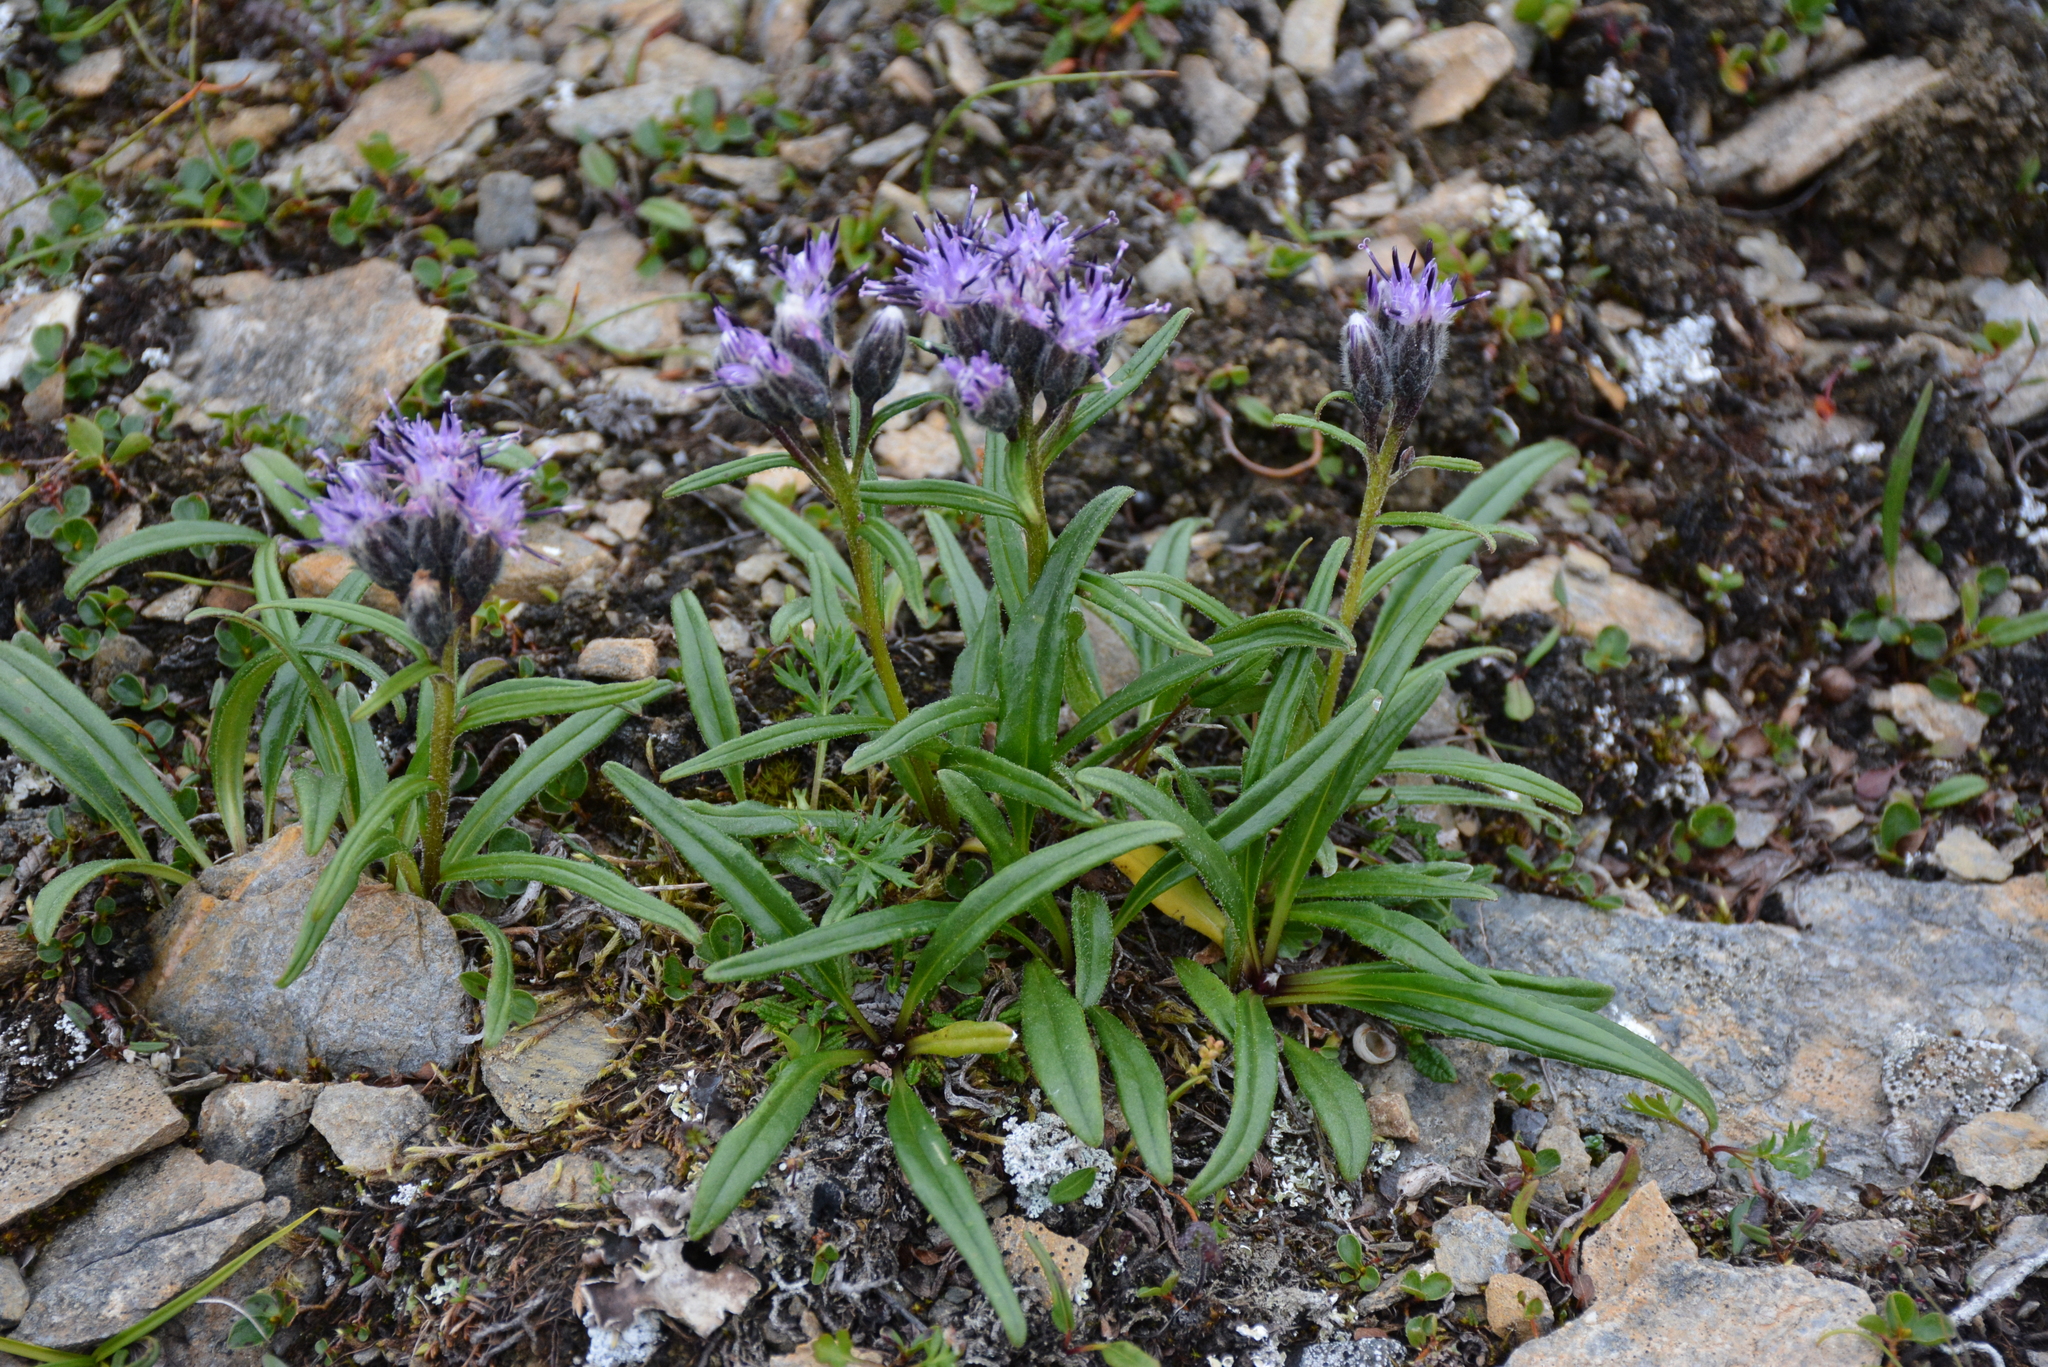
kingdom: Plantae
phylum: Tracheophyta
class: Magnoliopsida
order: Asterales
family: Asteraceae
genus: Saussurea
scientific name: Saussurea angustifolia
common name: Common saussurea
